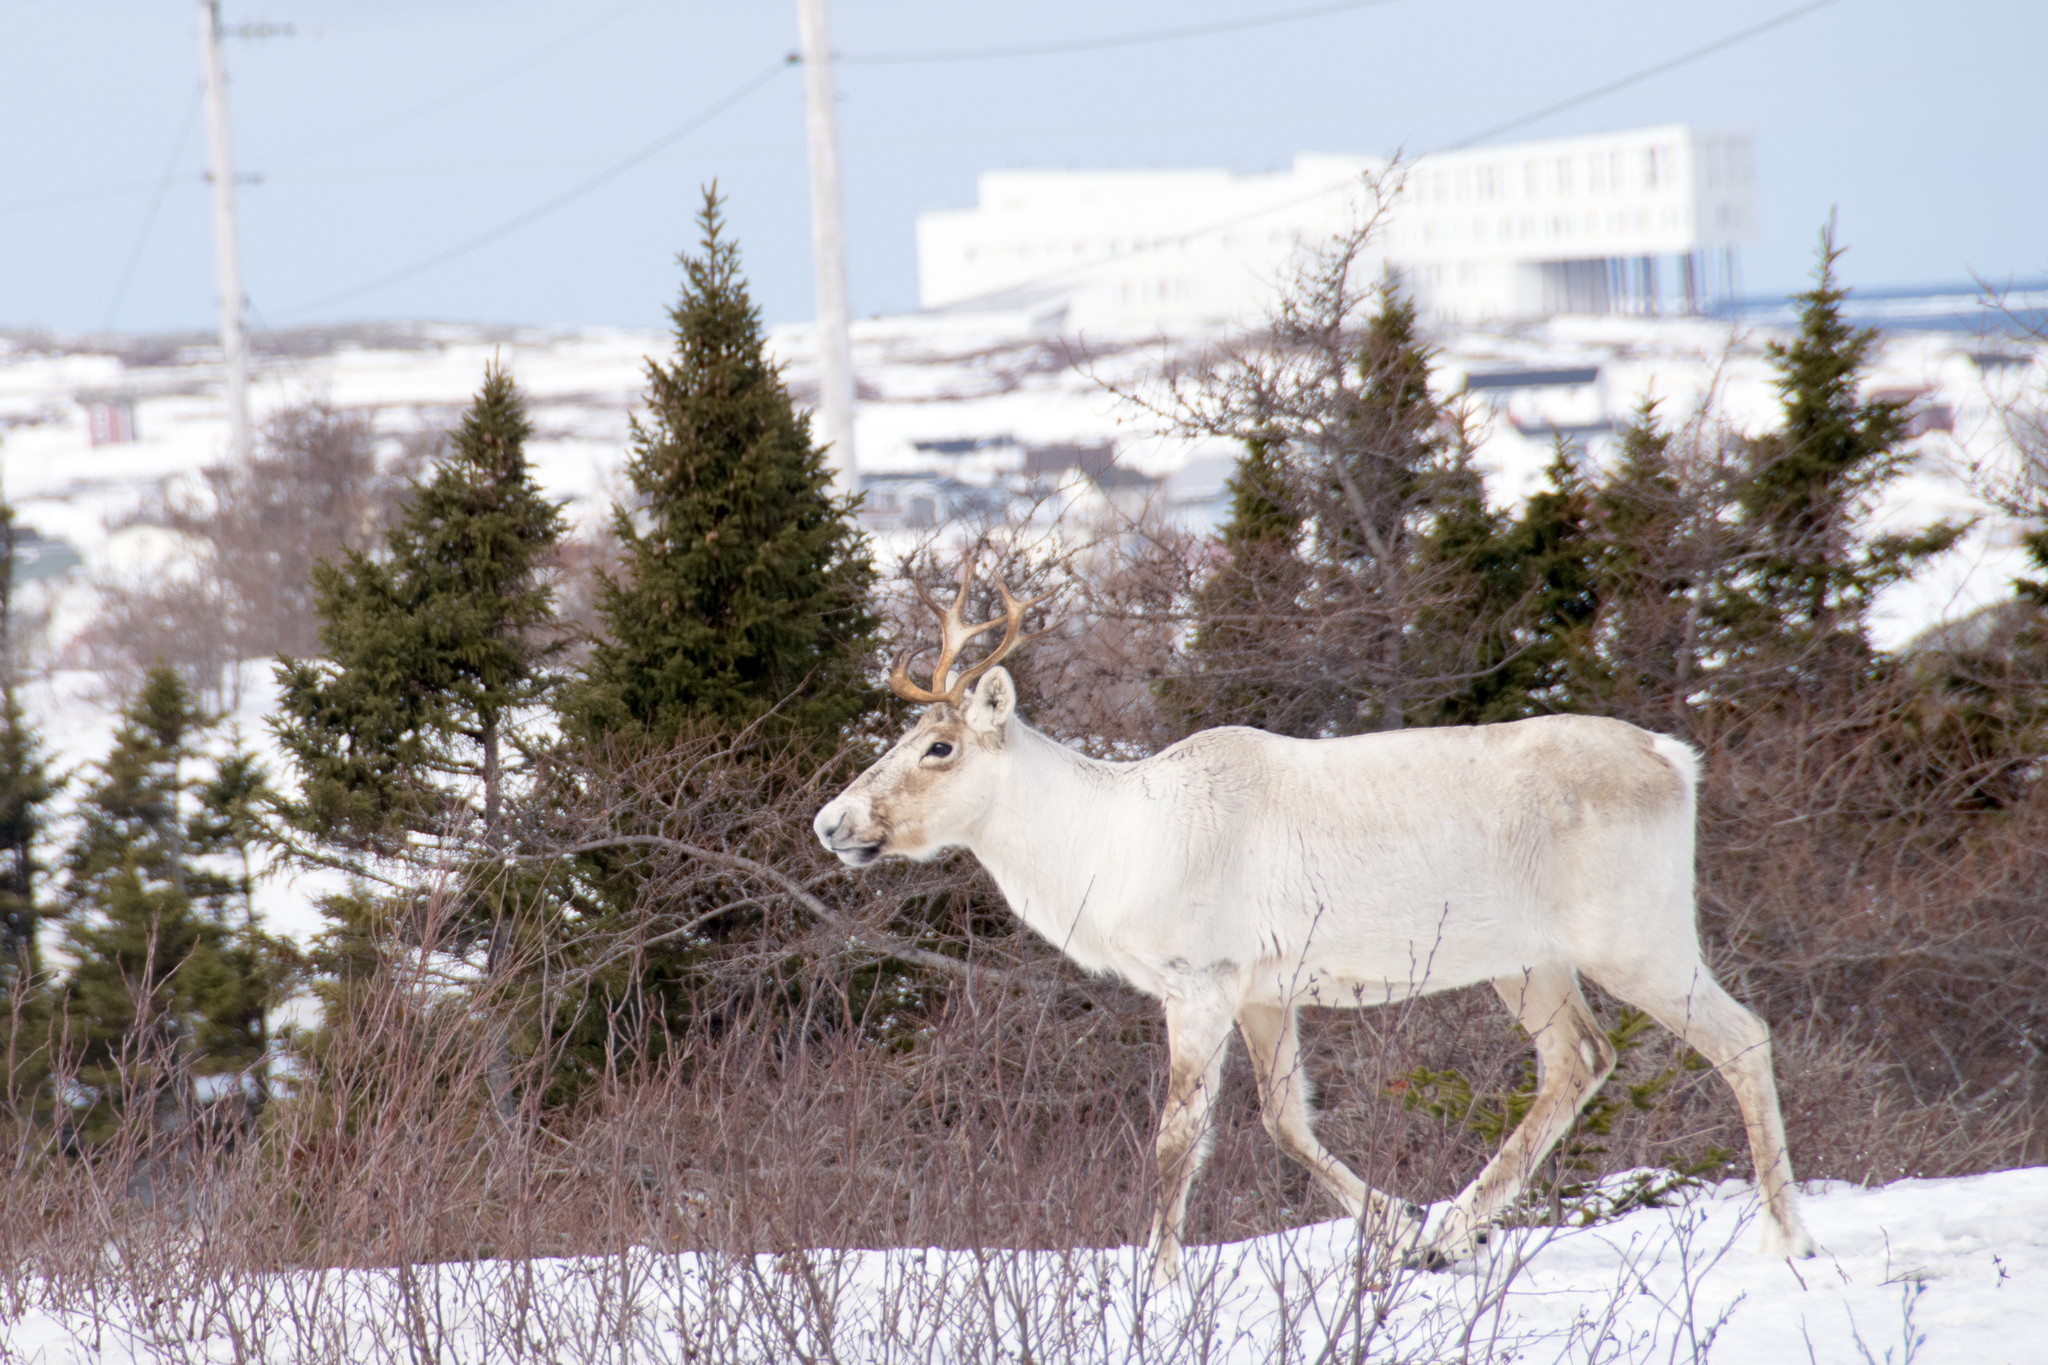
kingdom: Animalia
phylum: Chordata
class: Mammalia
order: Artiodactyla
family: Cervidae
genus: Rangifer
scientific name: Rangifer tarandus
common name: Reindeer
